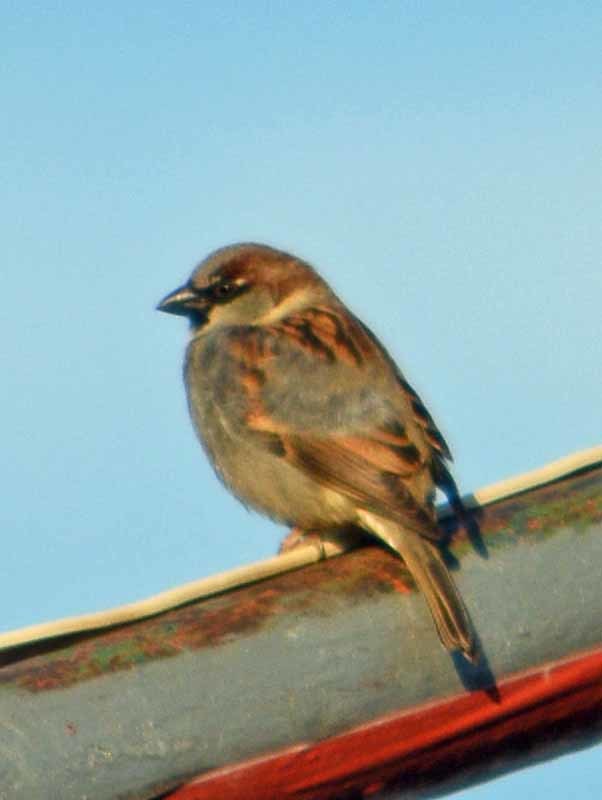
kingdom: Animalia
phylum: Chordata
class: Aves
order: Passeriformes
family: Passeridae
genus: Passer
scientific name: Passer domesticus
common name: House sparrow
